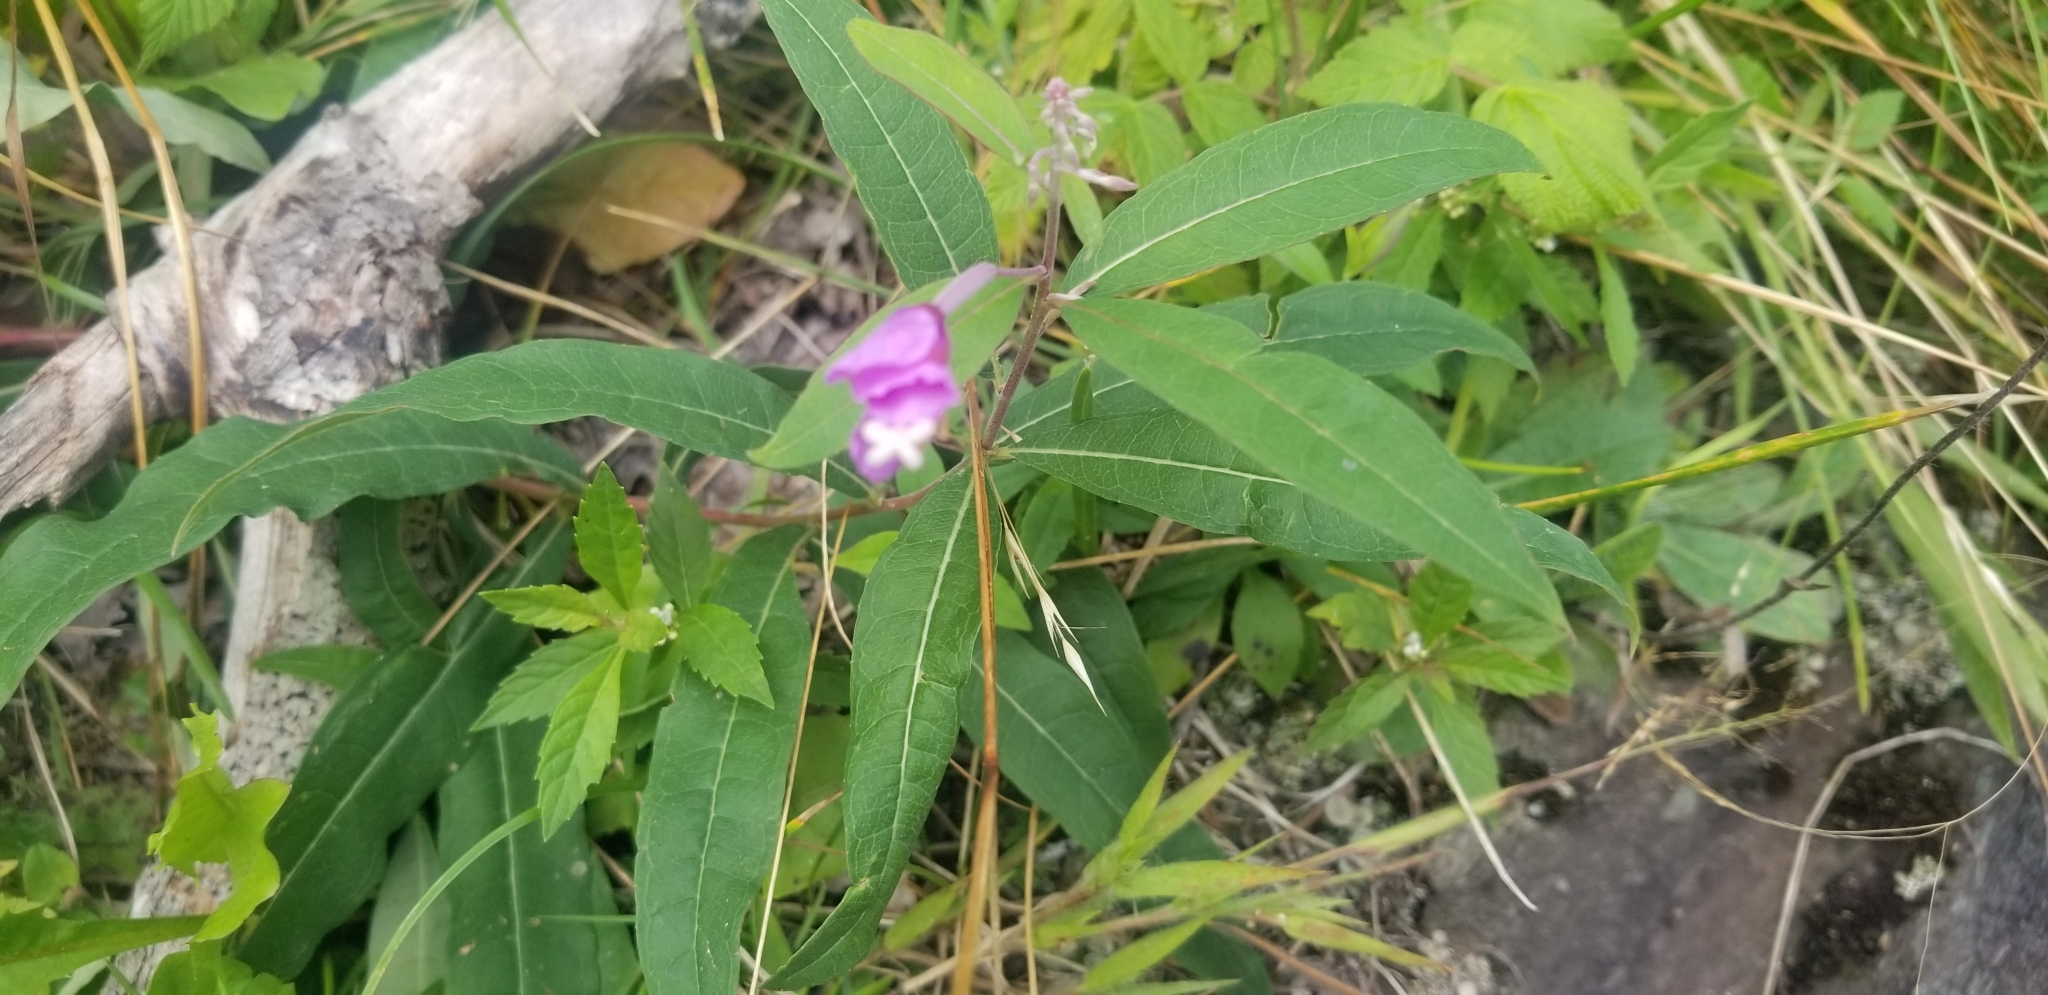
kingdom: Plantae
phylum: Tracheophyta
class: Magnoliopsida
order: Myrtales
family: Onagraceae
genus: Epilobium
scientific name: Epilobium hirsutum
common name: Great willowherb
